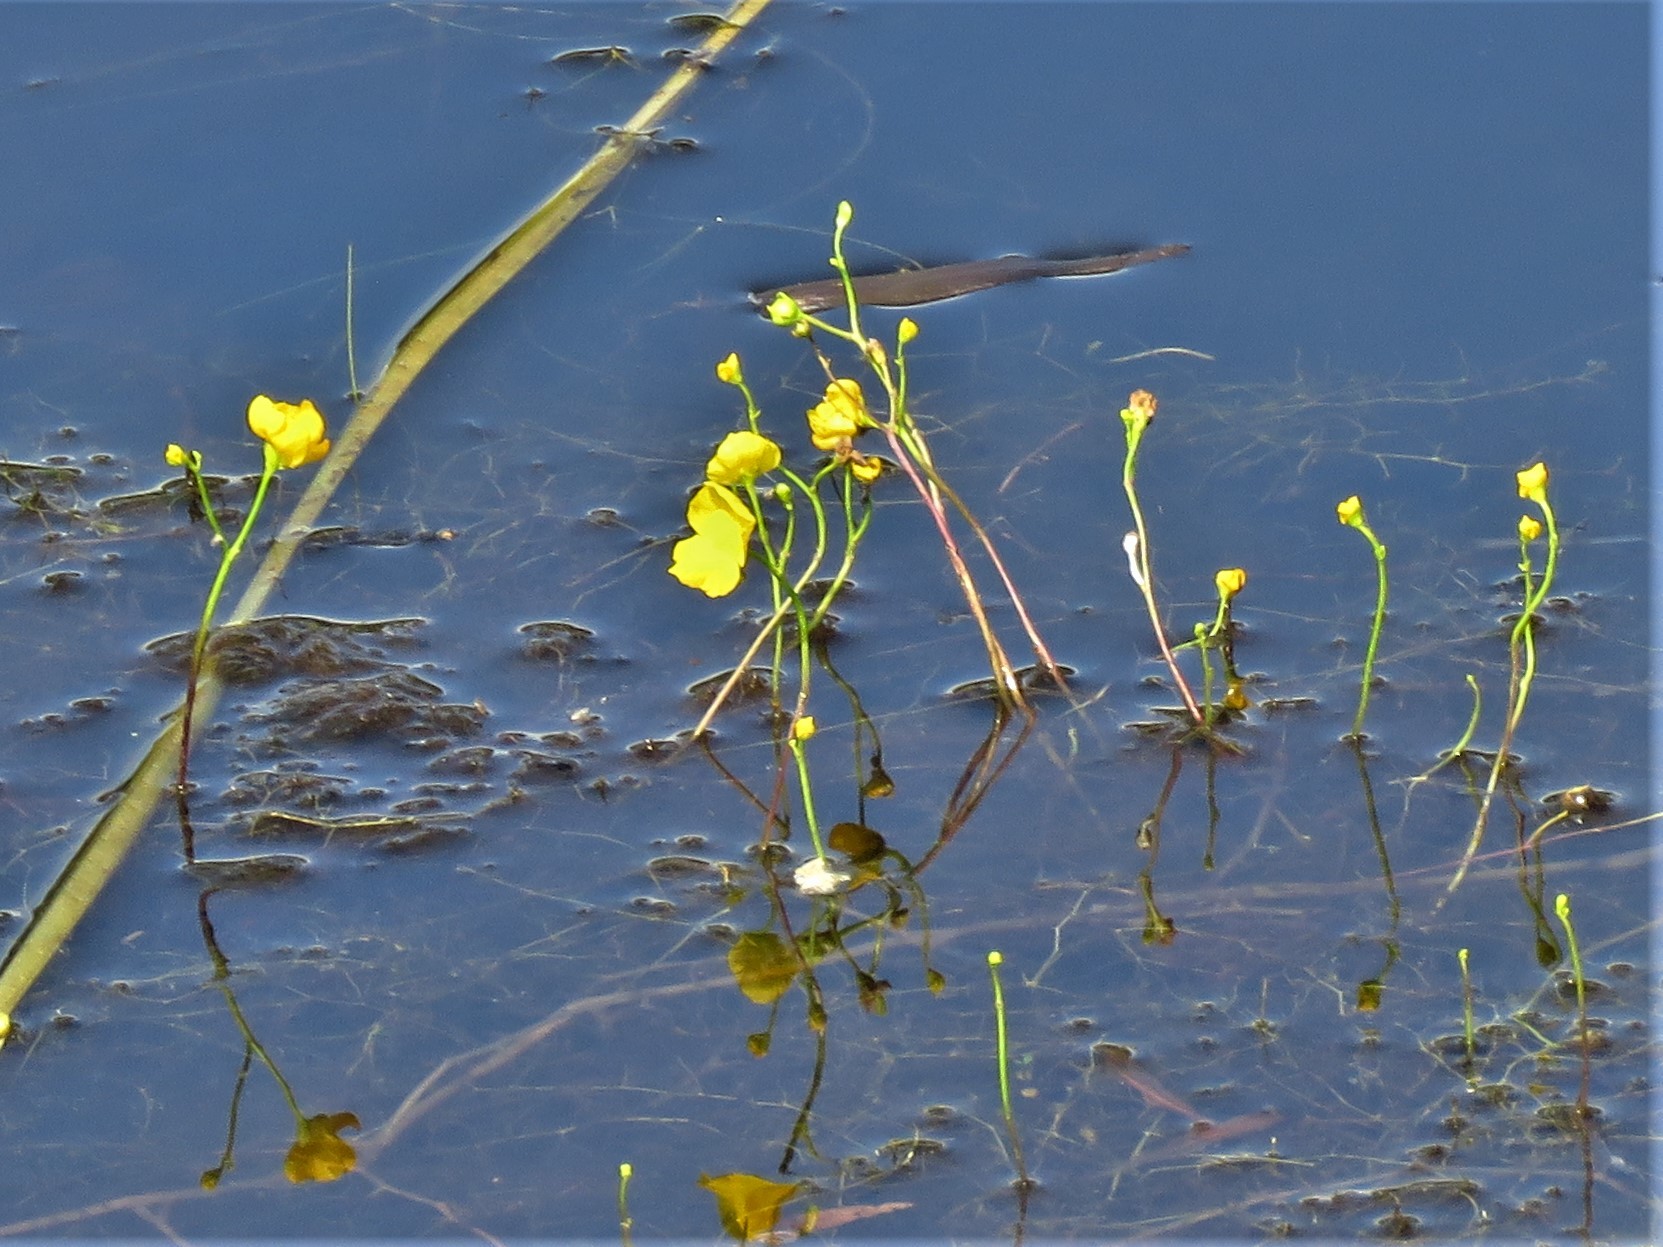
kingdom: Plantae
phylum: Tracheophyta
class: Magnoliopsida
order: Lamiales
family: Lentibulariaceae
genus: Utricularia
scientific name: Utricularia inflata
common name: Floating bladderwort
